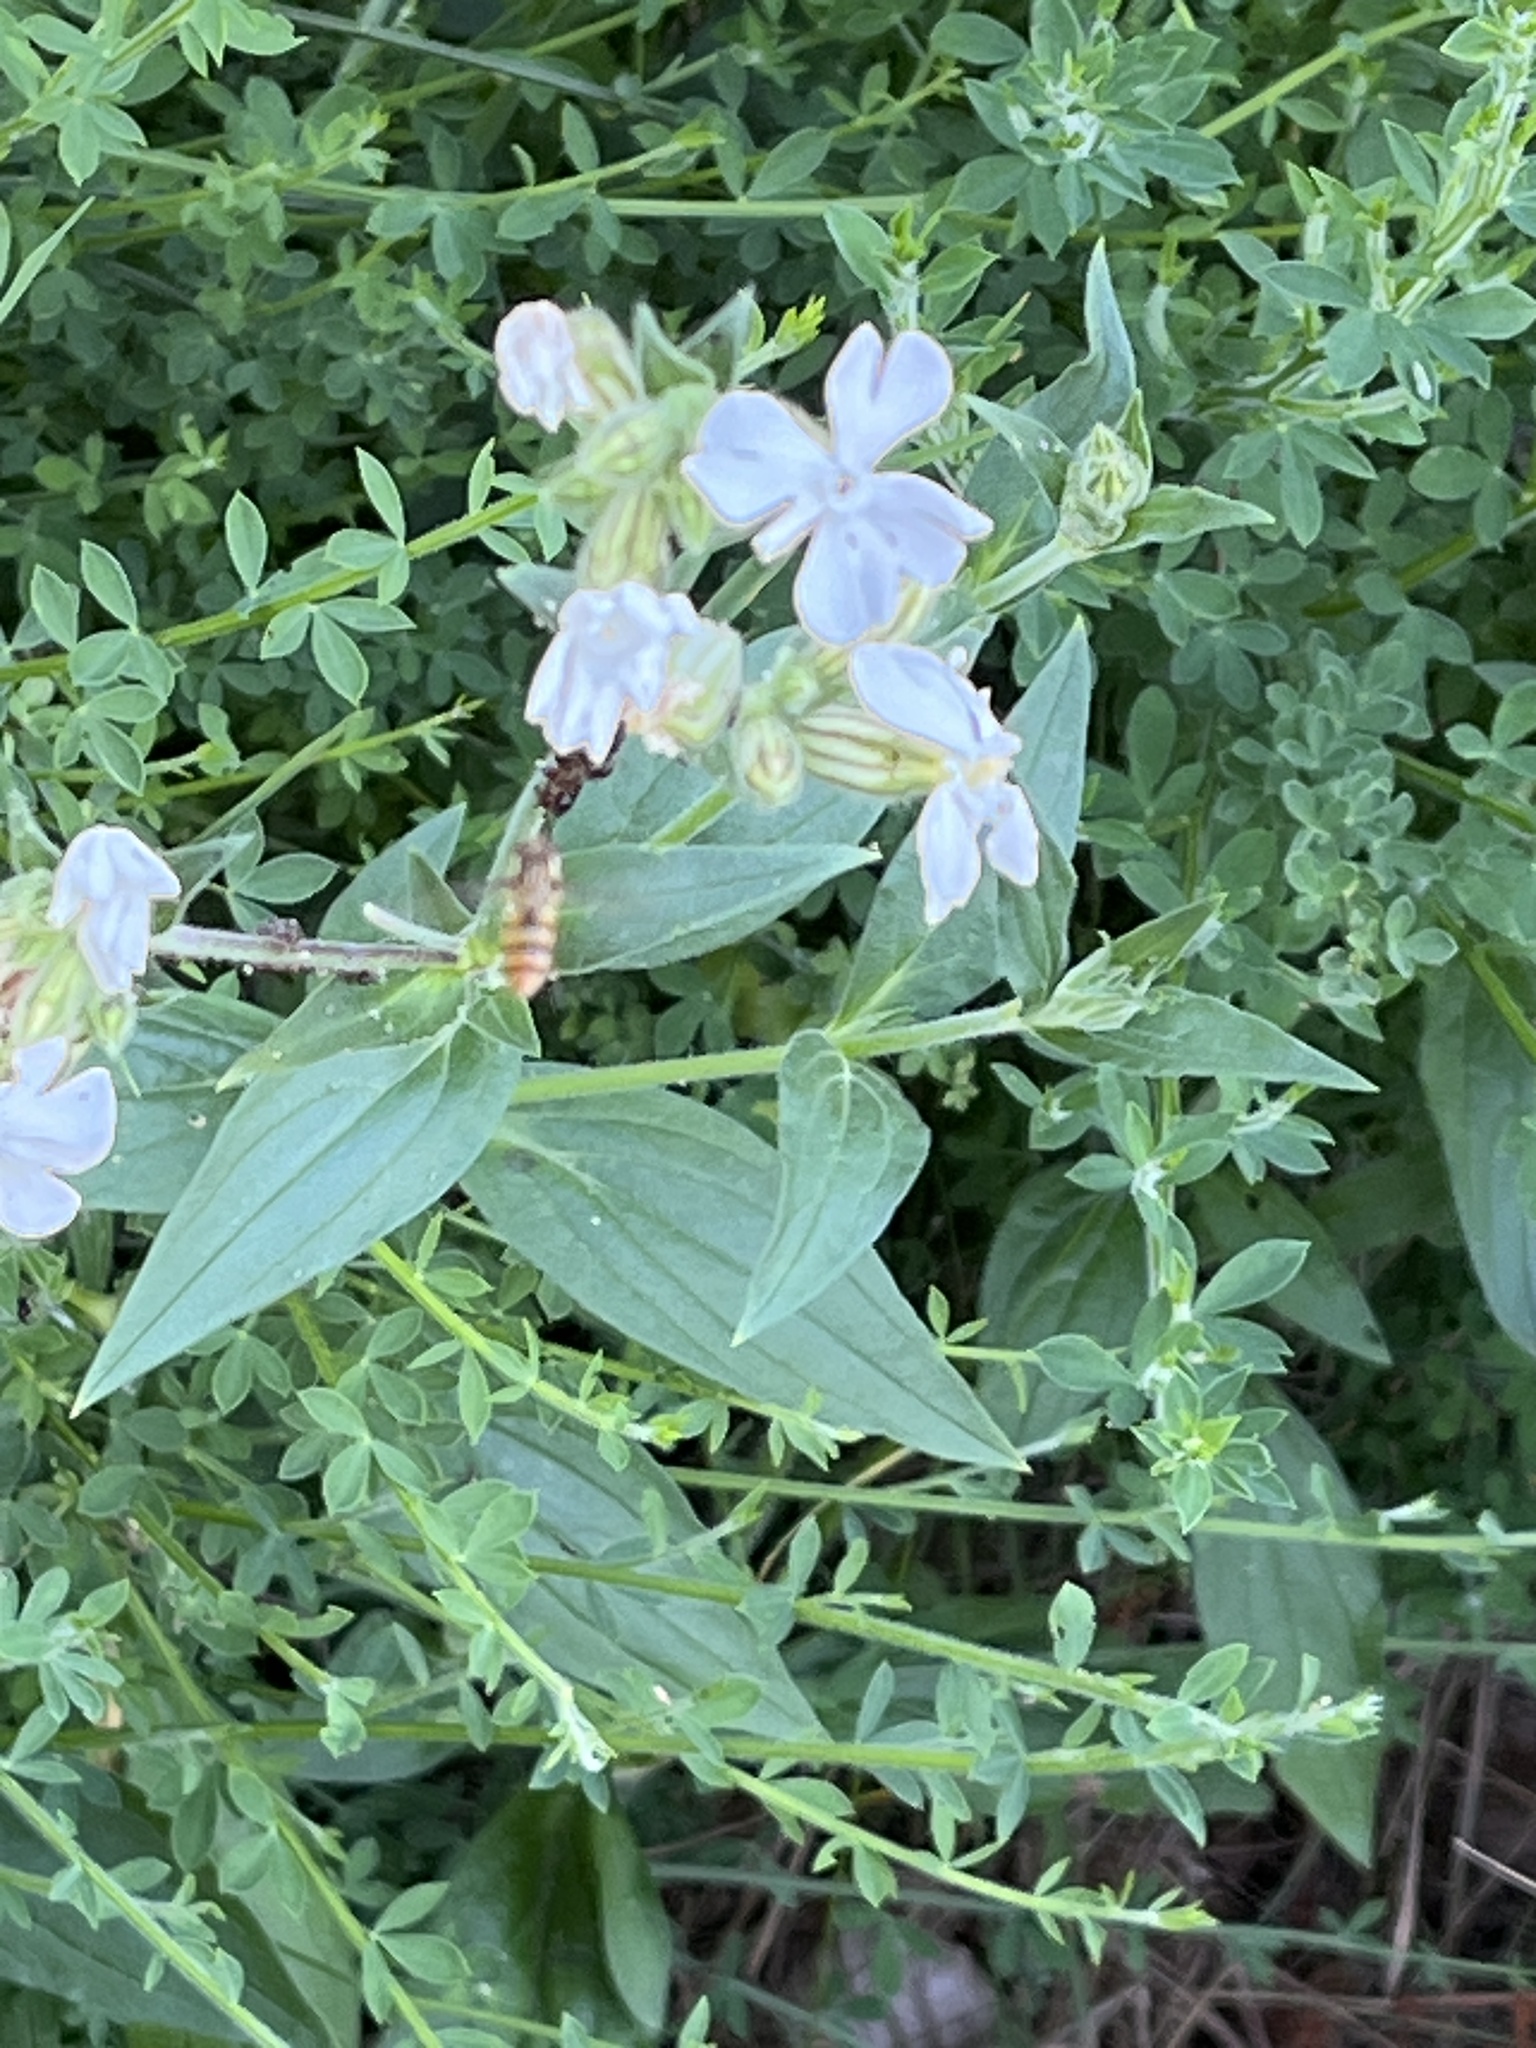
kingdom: Plantae
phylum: Tracheophyta
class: Magnoliopsida
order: Caryophyllales
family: Caryophyllaceae
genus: Silene
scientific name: Silene latifolia
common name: White campion
